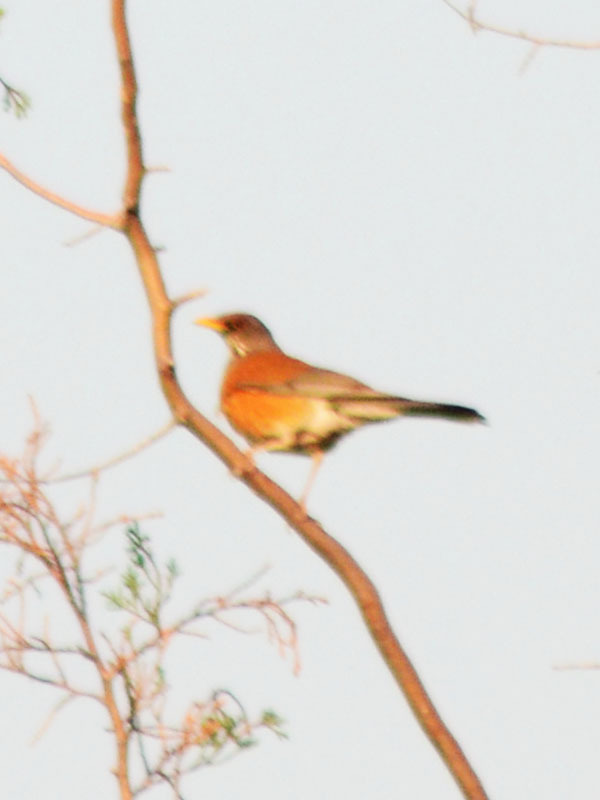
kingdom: Animalia
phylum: Chordata
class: Aves
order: Passeriformes
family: Turdidae
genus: Turdus
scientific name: Turdus rufopalliatus
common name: Rufous-backed robin
